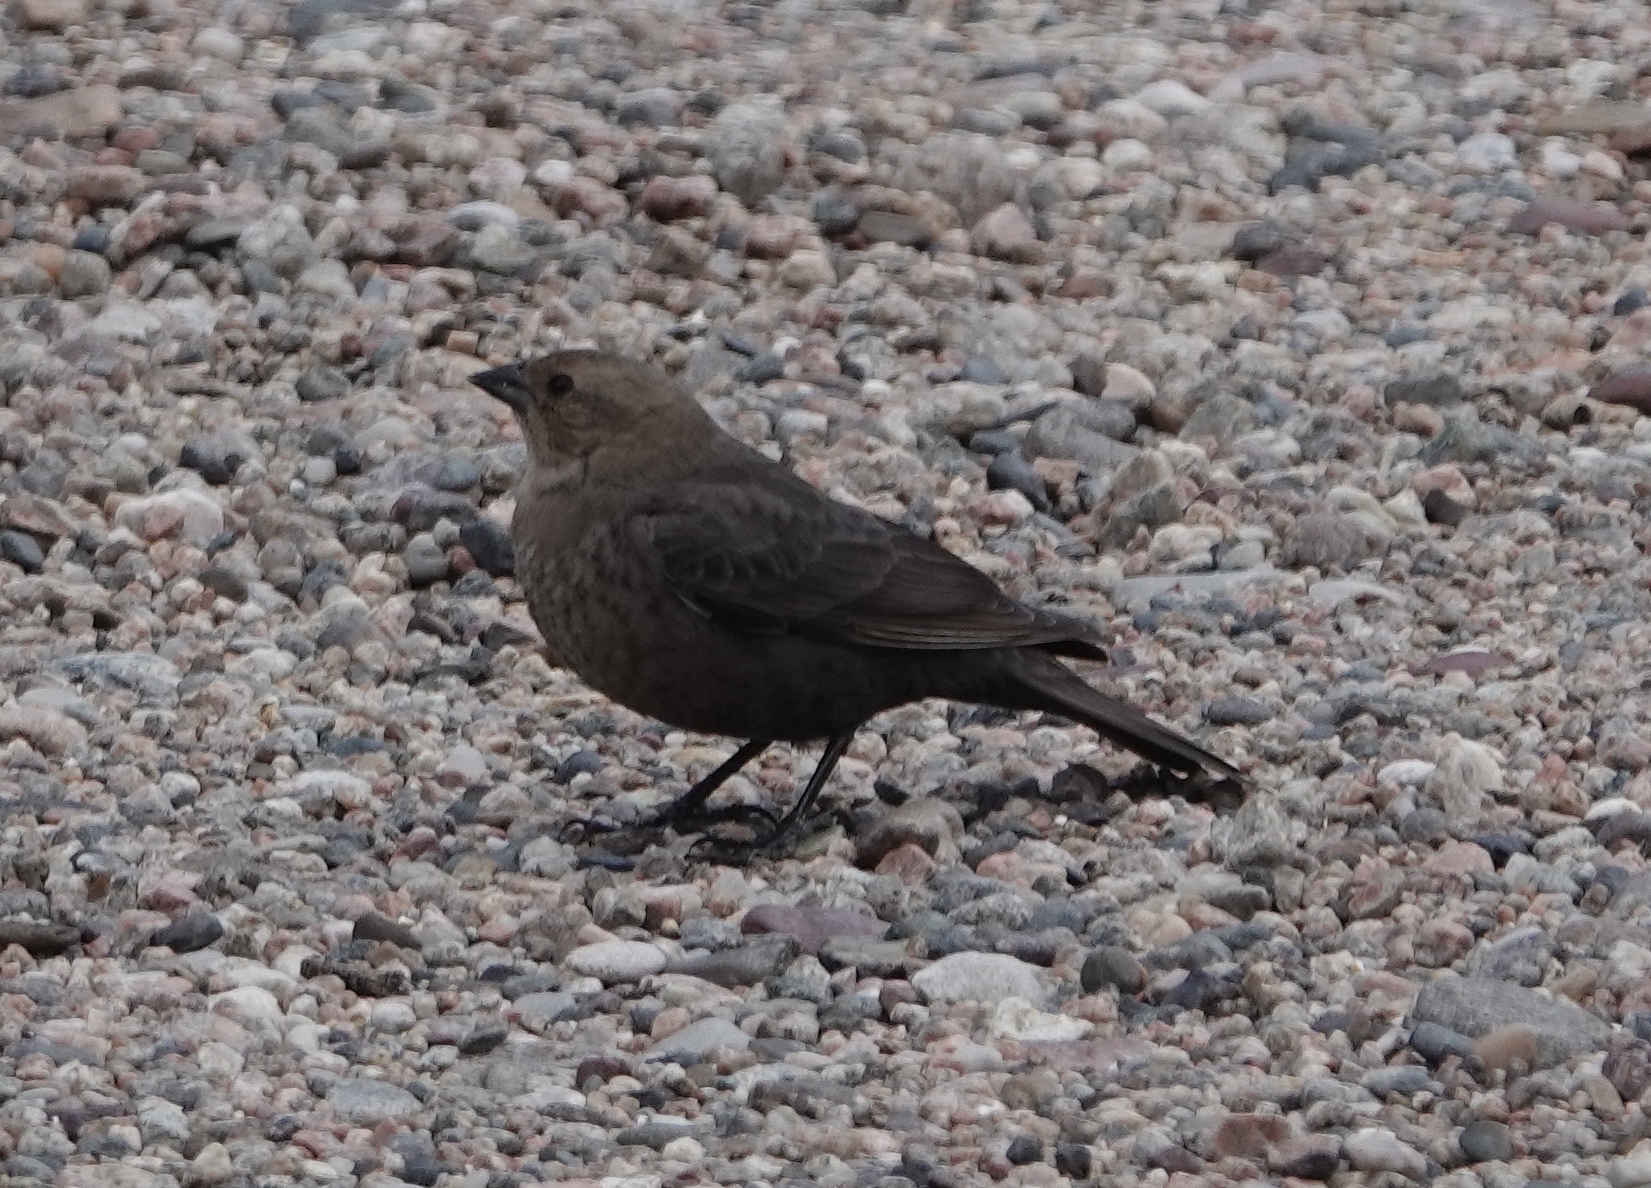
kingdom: Animalia
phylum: Chordata
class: Aves
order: Passeriformes
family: Icteridae
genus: Molothrus
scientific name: Molothrus ater
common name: Brown-headed cowbird
